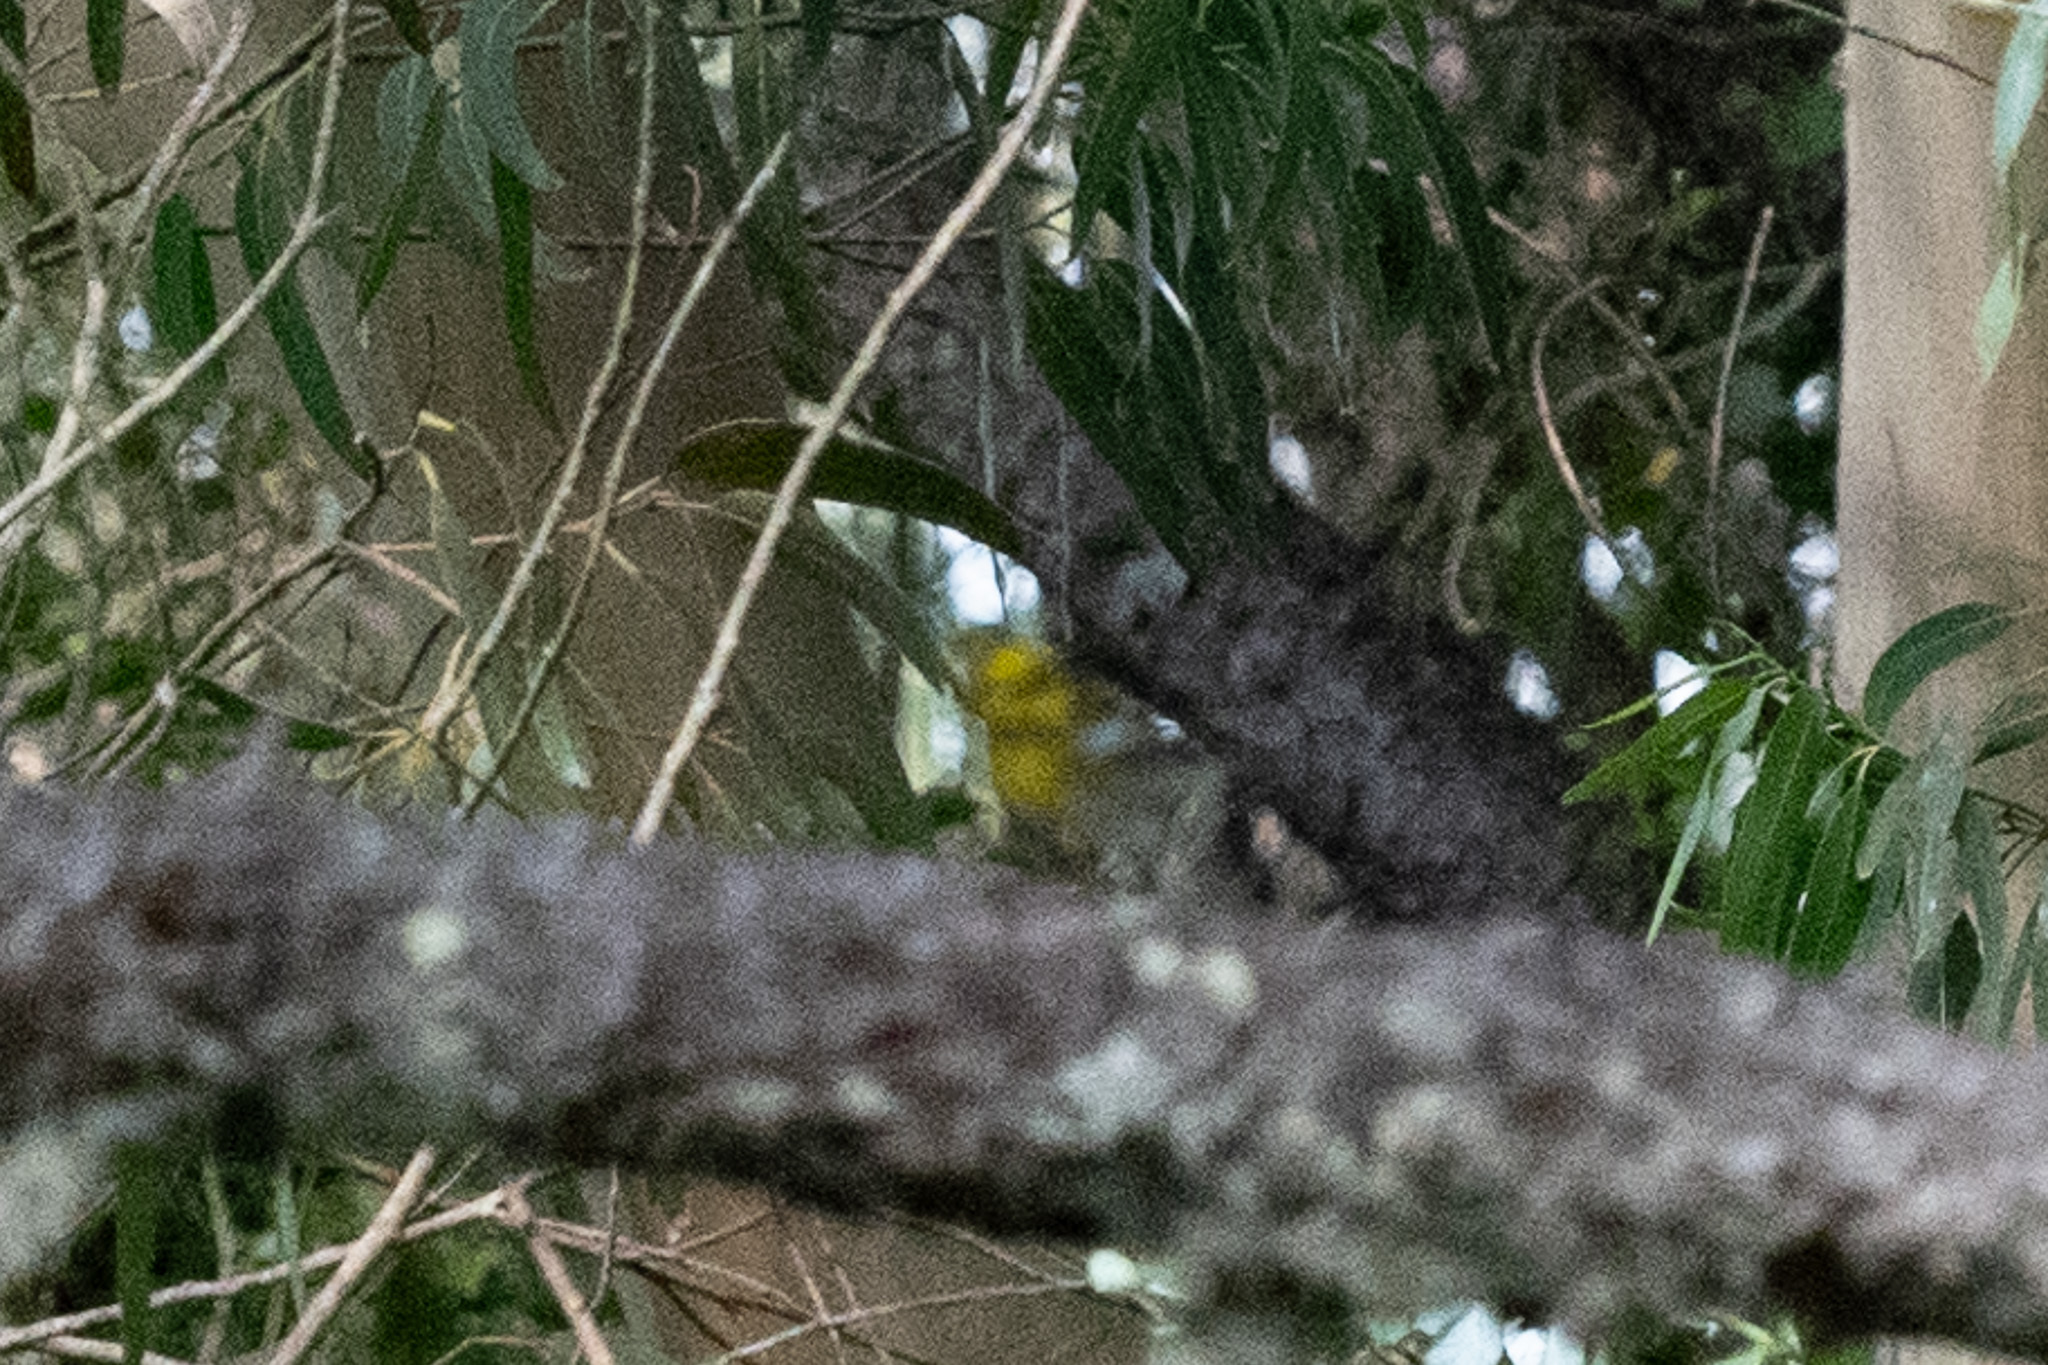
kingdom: Animalia
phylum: Chordata
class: Aves
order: Passeriformes
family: Parulidae
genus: Setophaga
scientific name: Setophaga townsendi
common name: Townsend's warbler
